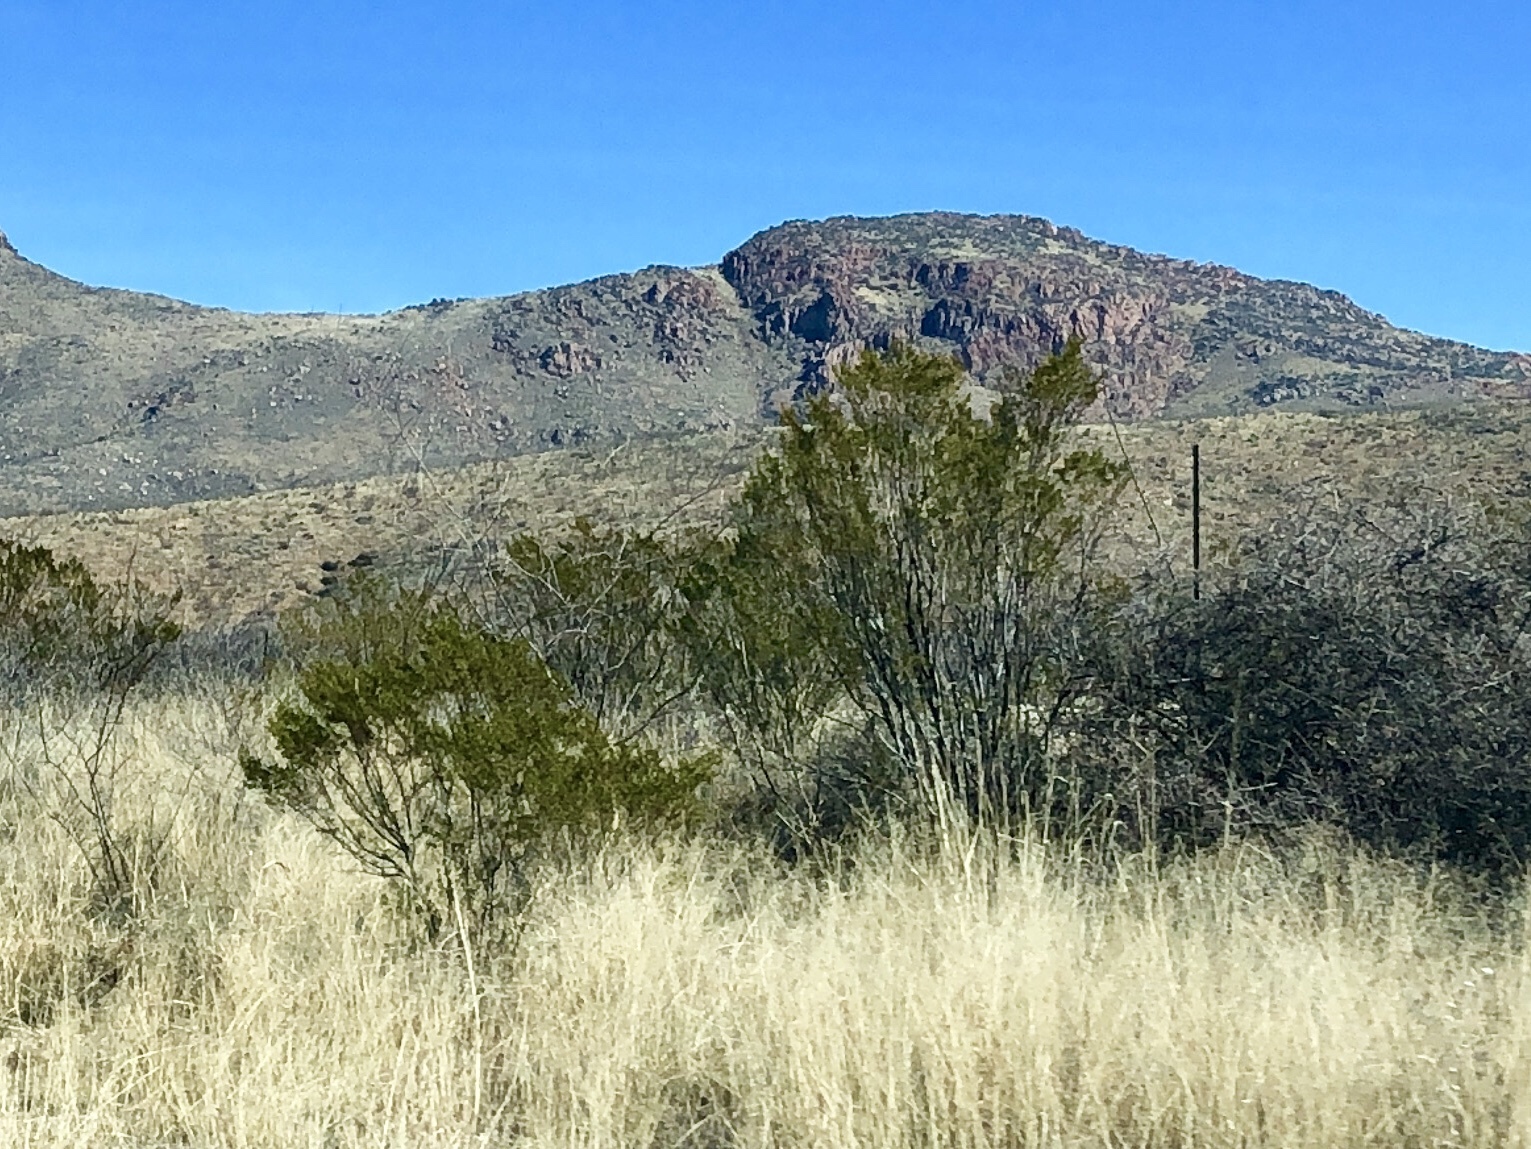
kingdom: Plantae
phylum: Tracheophyta
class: Magnoliopsida
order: Zygophyllales
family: Zygophyllaceae
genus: Larrea
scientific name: Larrea tridentata
